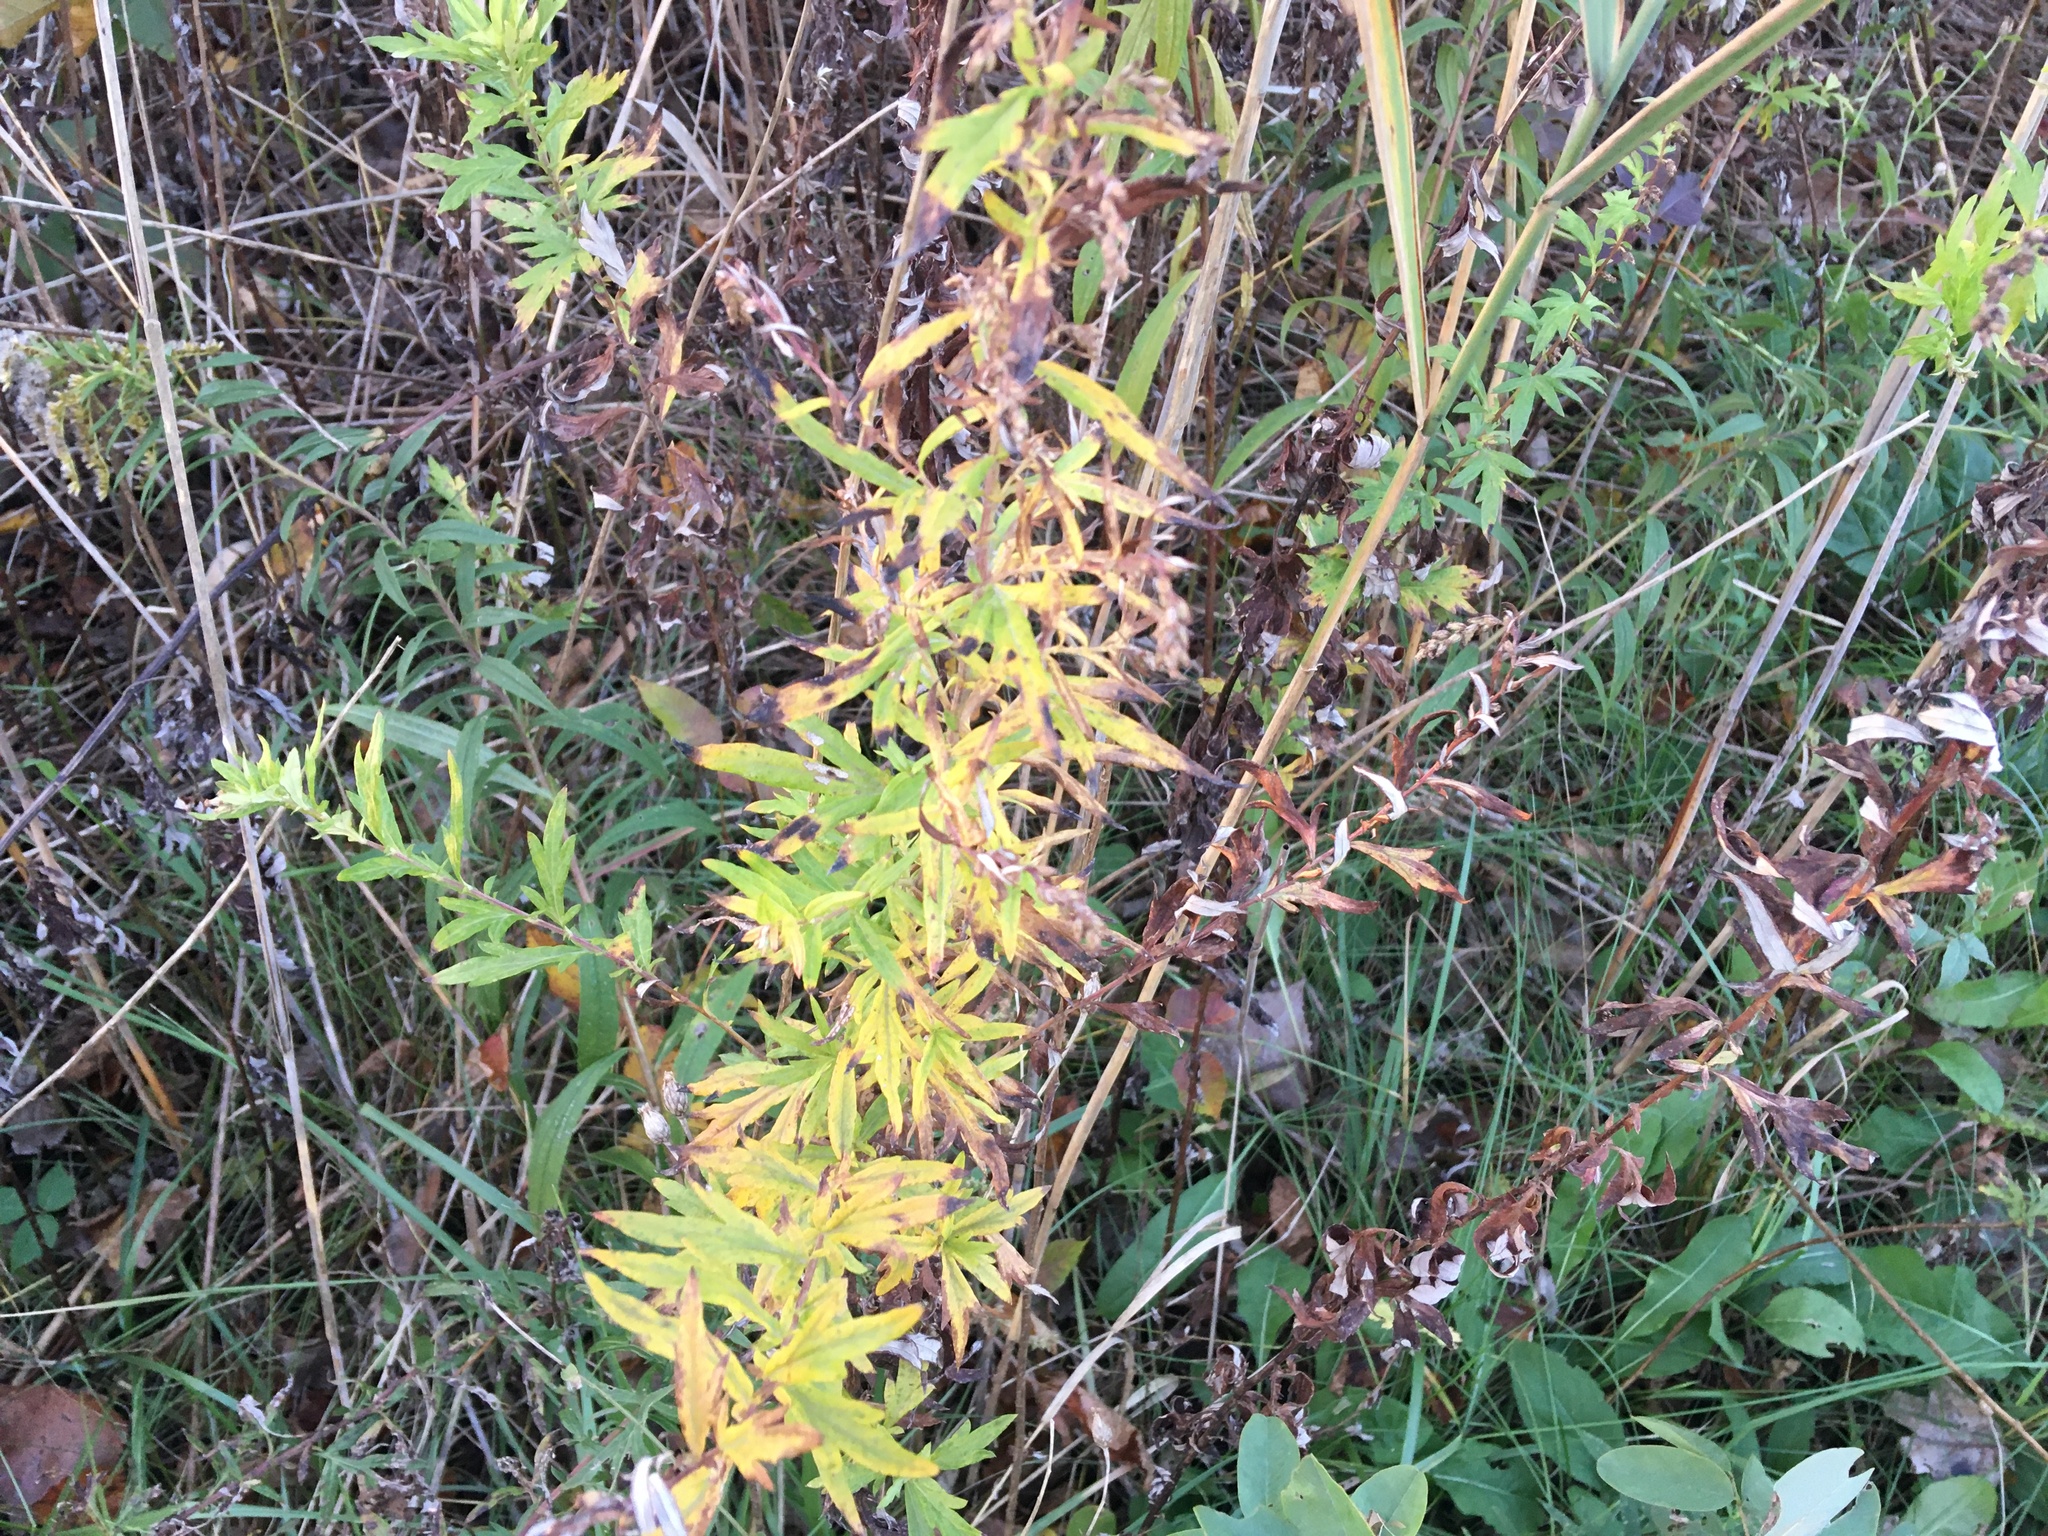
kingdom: Plantae
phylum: Tracheophyta
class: Magnoliopsida
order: Asterales
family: Asteraceae
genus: Artemisia
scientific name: Artemisia vulgaris
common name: Mugwort
